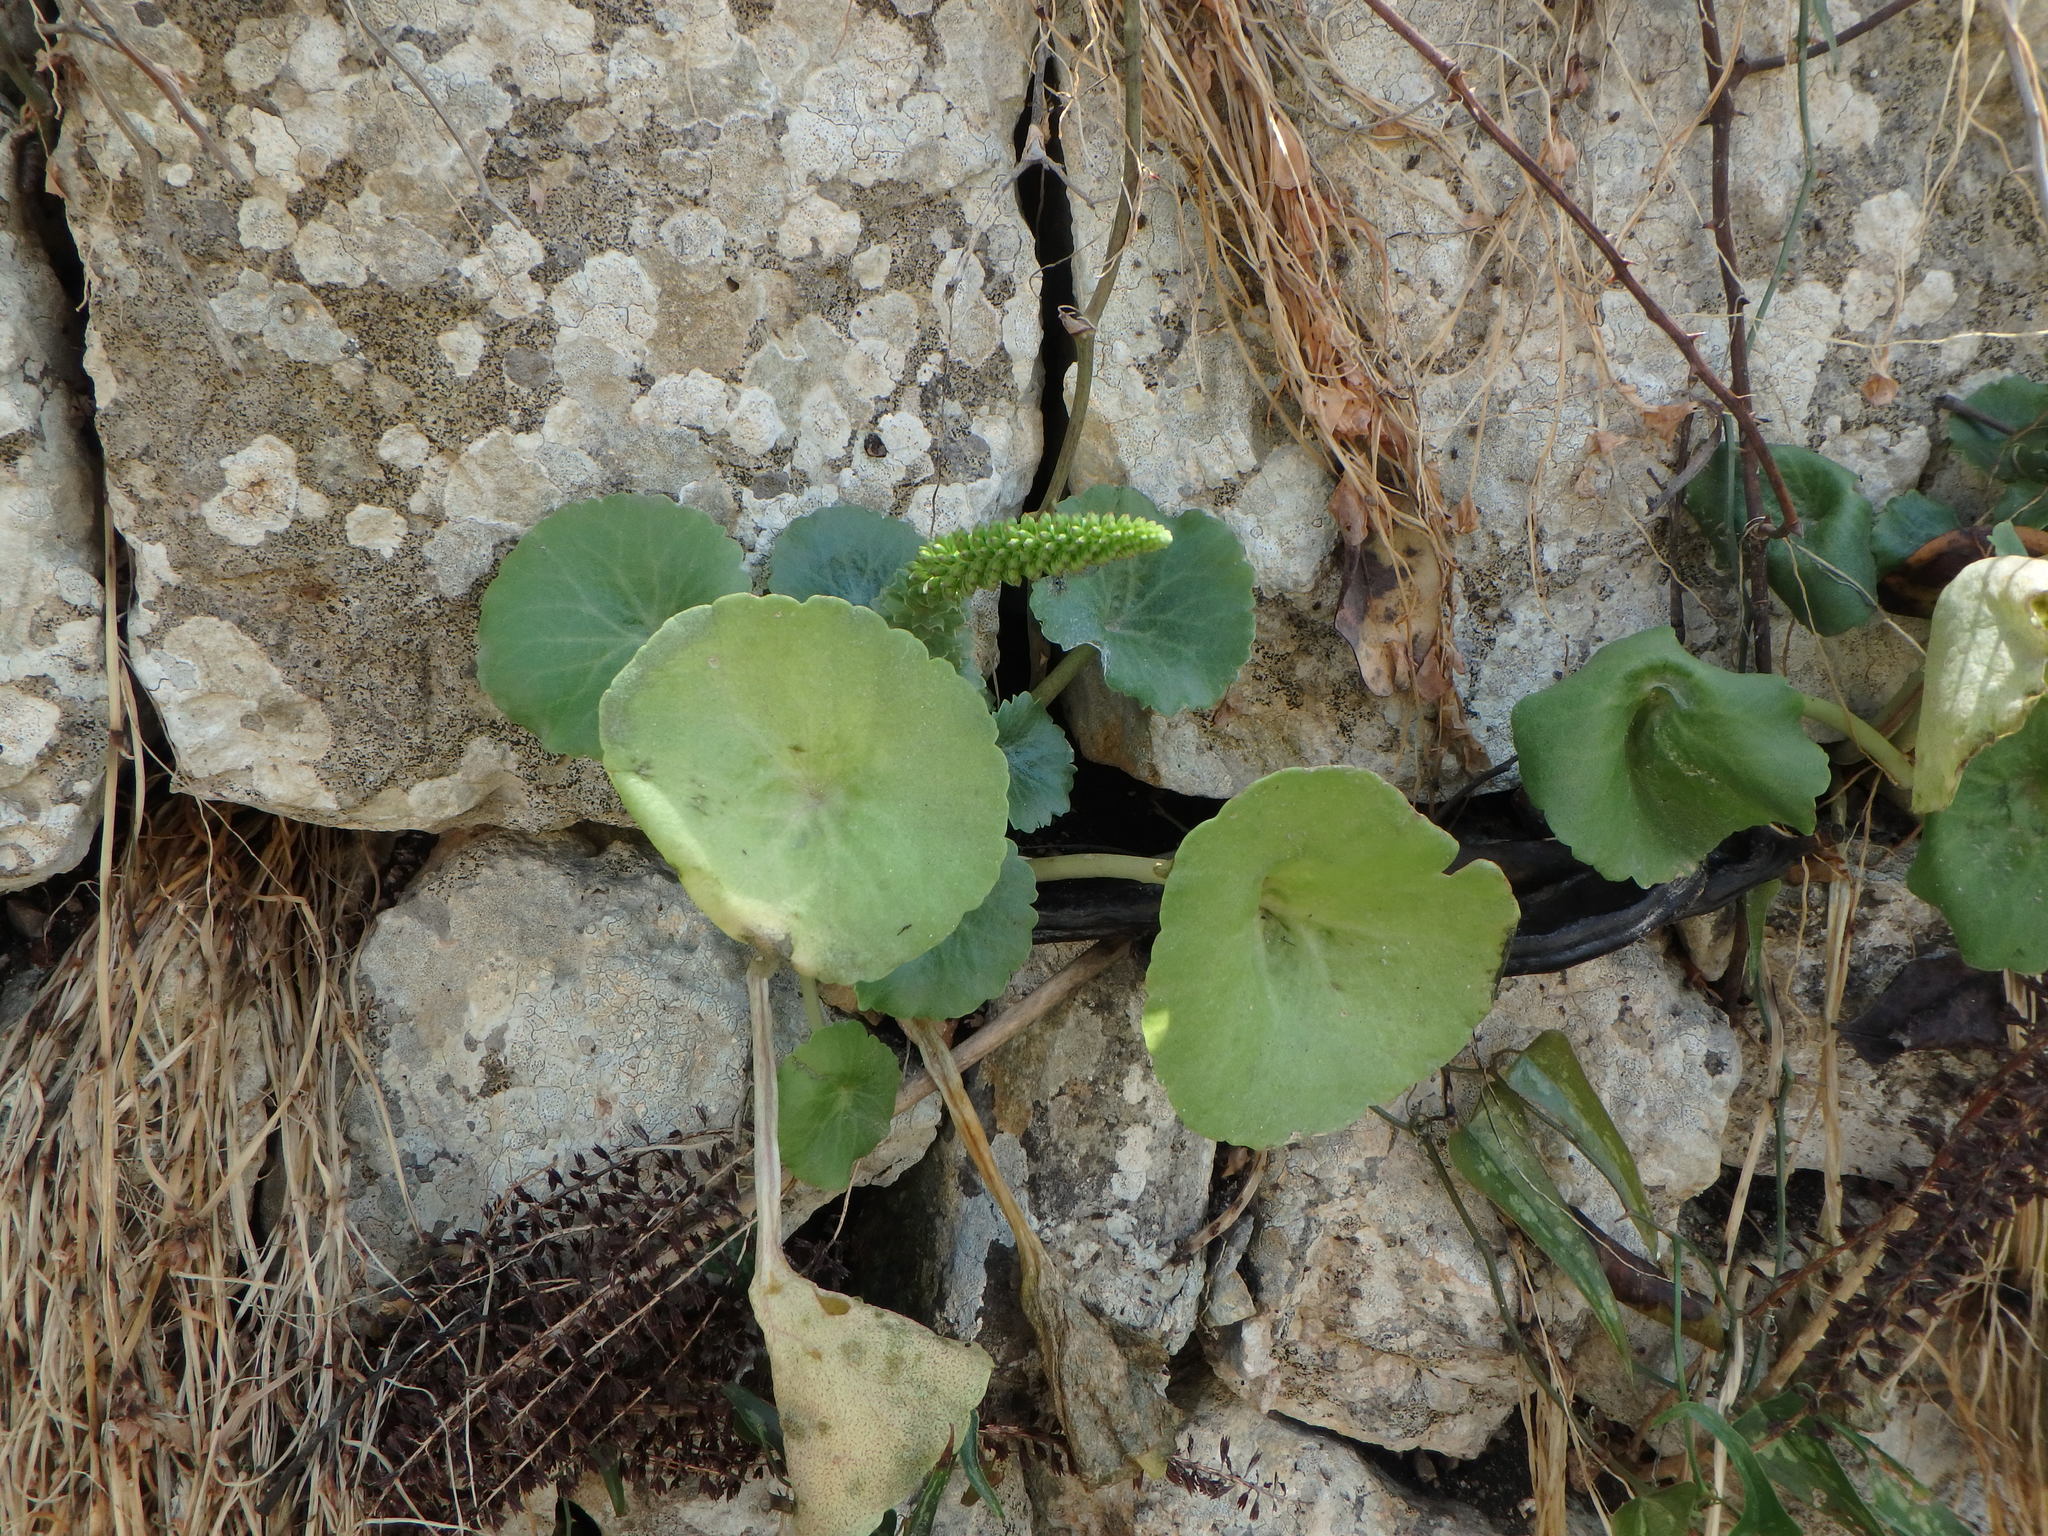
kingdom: Plantae
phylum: Tracheophyta
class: Magnoliopsida
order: Saxifragales
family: Crassulaceae
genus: Umbilicus
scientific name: Umbilicus horizontalis
